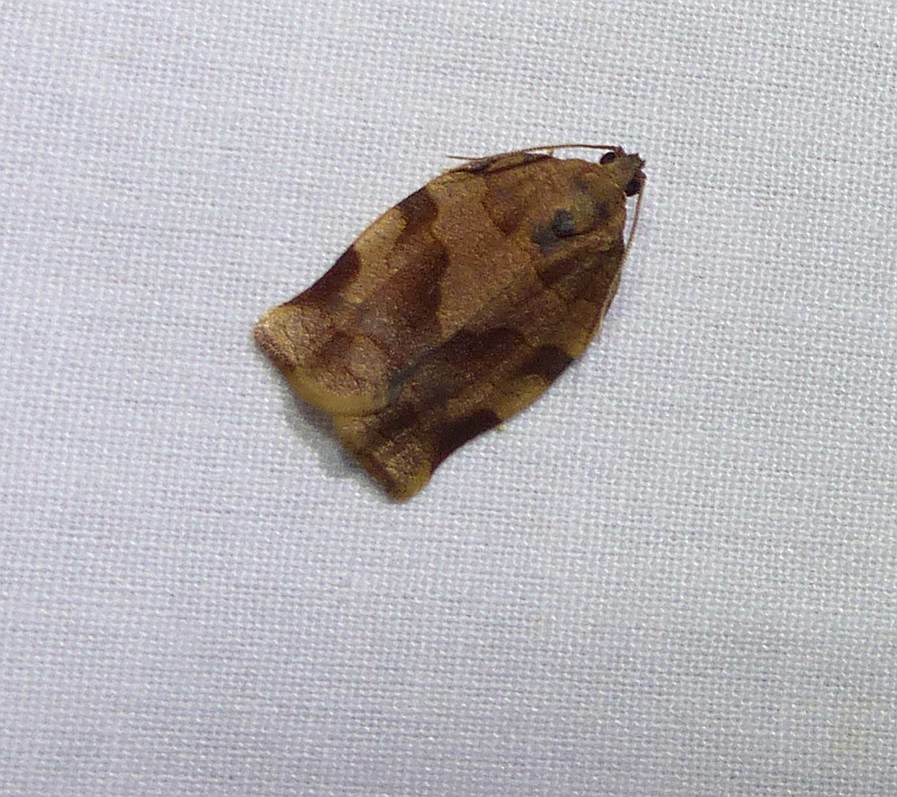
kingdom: Animalia
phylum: Arthropoda
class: Insecta
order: Lepidoptera
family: Tortricidae
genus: Choristoneura
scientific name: Choristoneura rosaceana
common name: Oblique-banded leafroller moth
